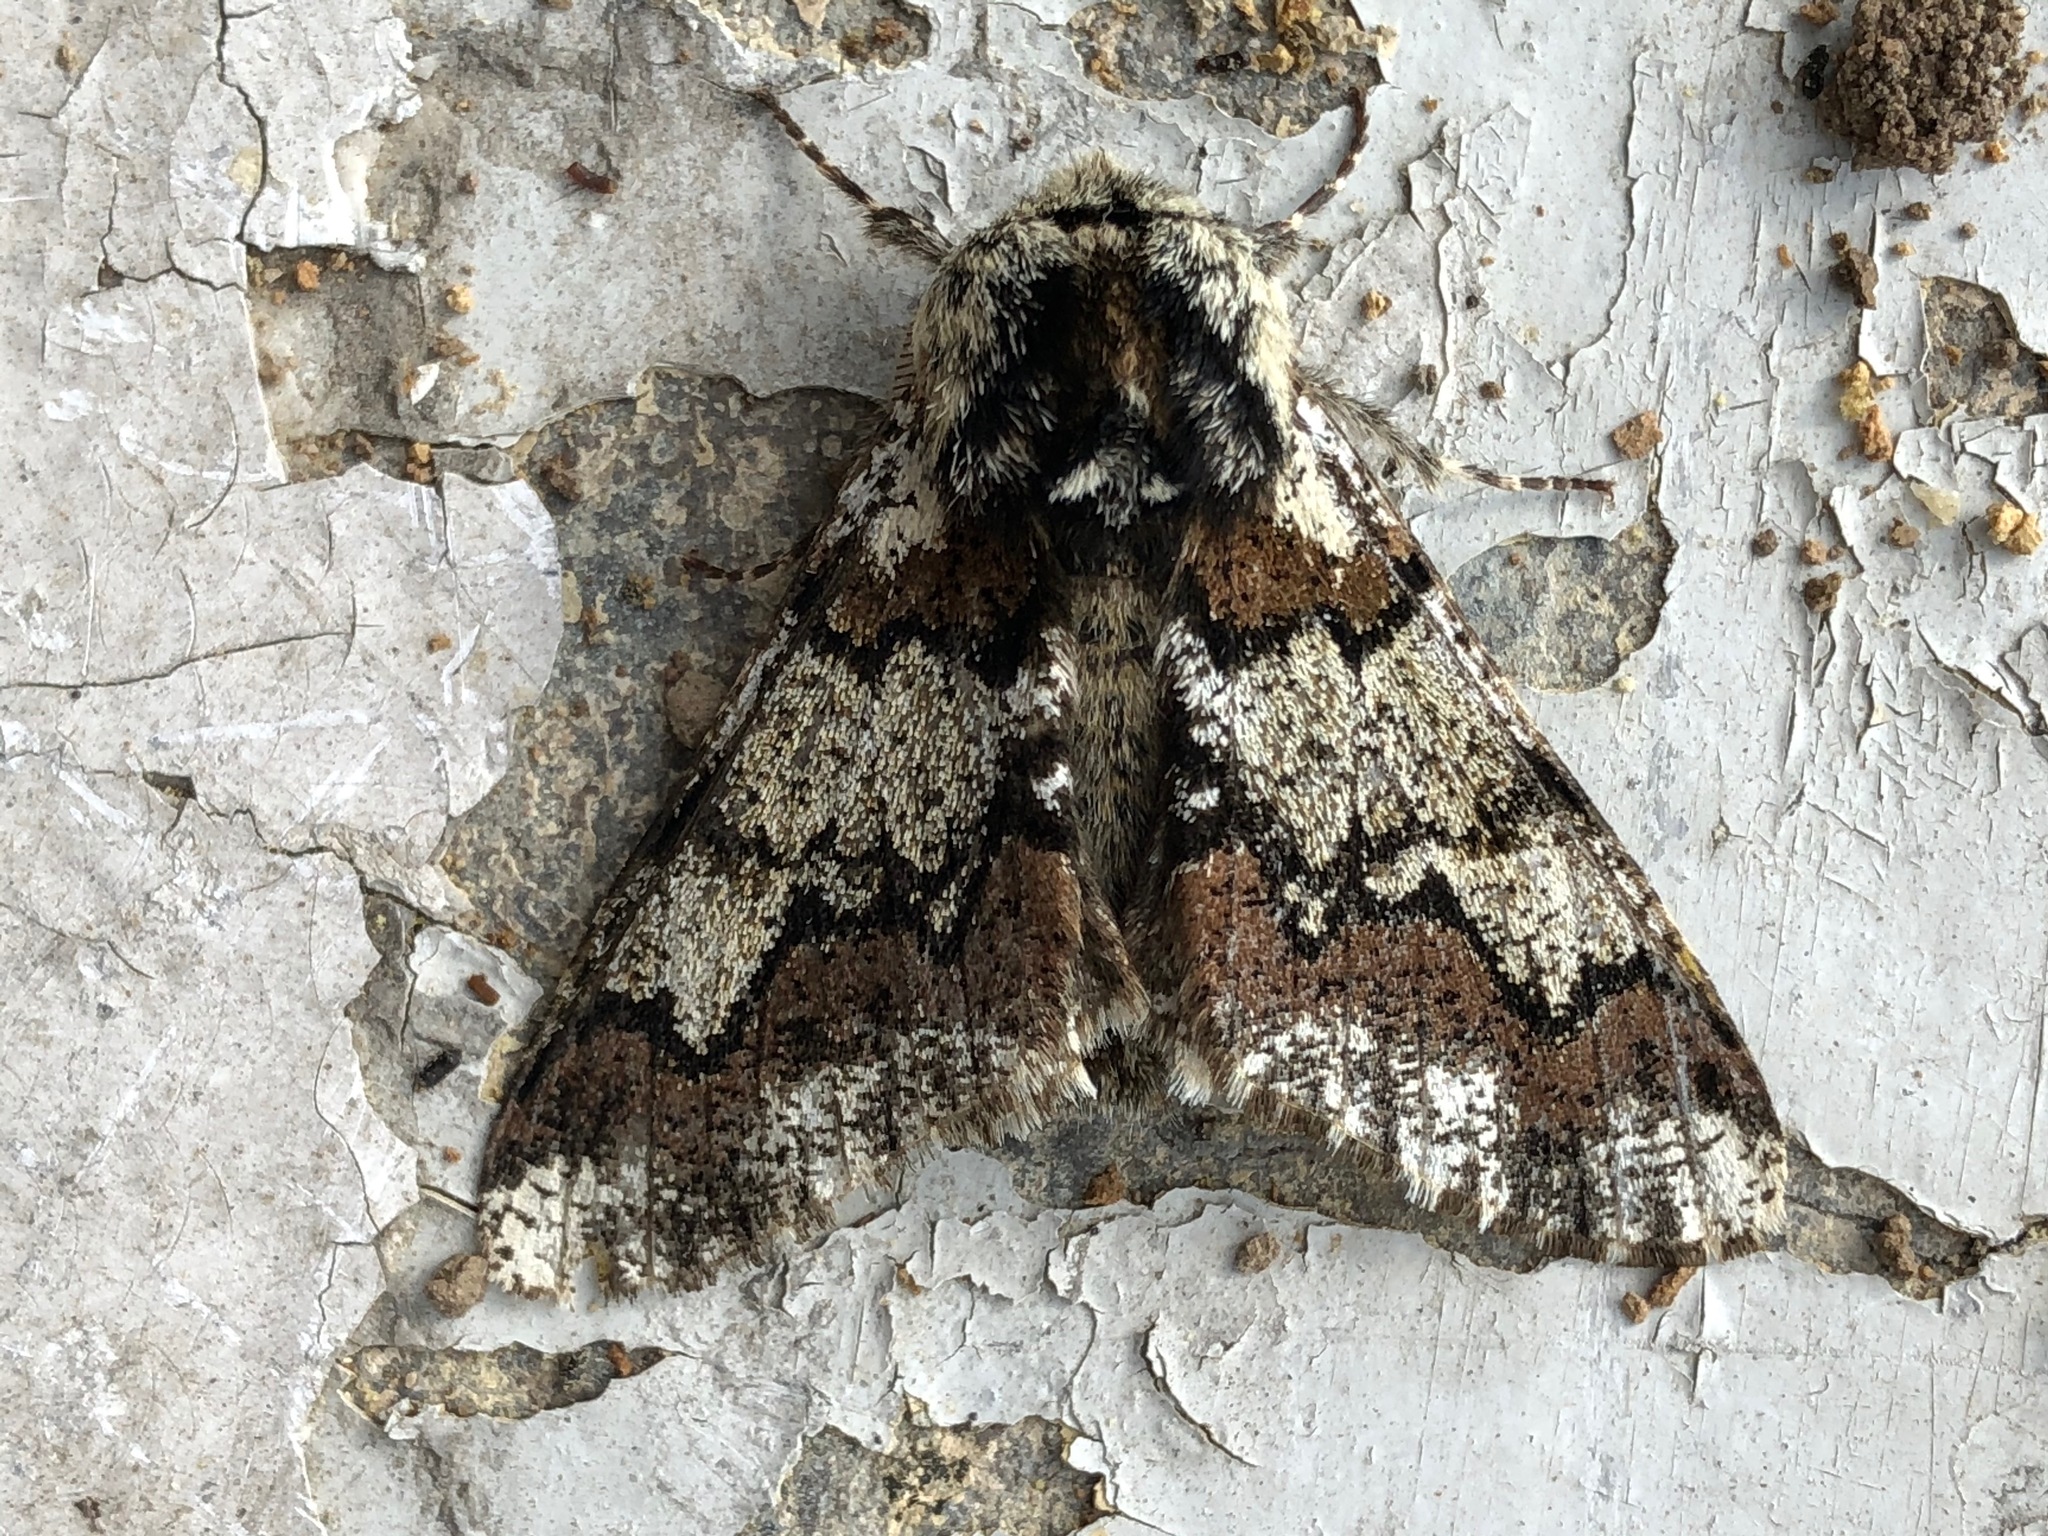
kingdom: Animalia
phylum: Arthropoda
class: Insecta
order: Lepidoptera
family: Geometridae
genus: Biston
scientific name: Biston strataria
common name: Oak beauty
